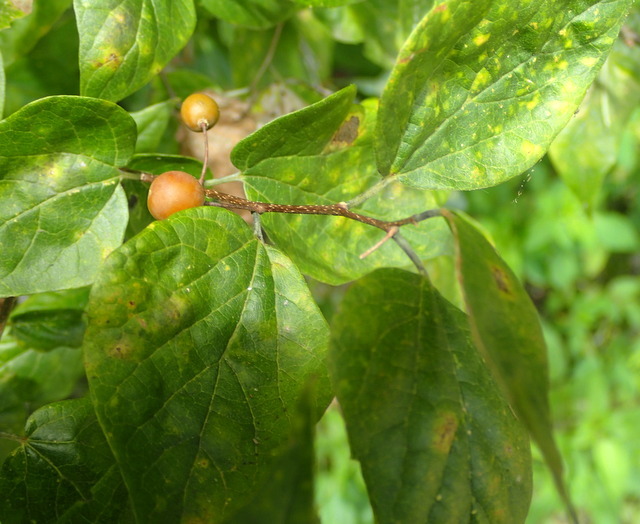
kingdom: Plantae
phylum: Tracheophyta
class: Magnoliopsida
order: Rosales
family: Cannabaceae
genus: Celtis
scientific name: Celtis laevigata
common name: Sugarberry
